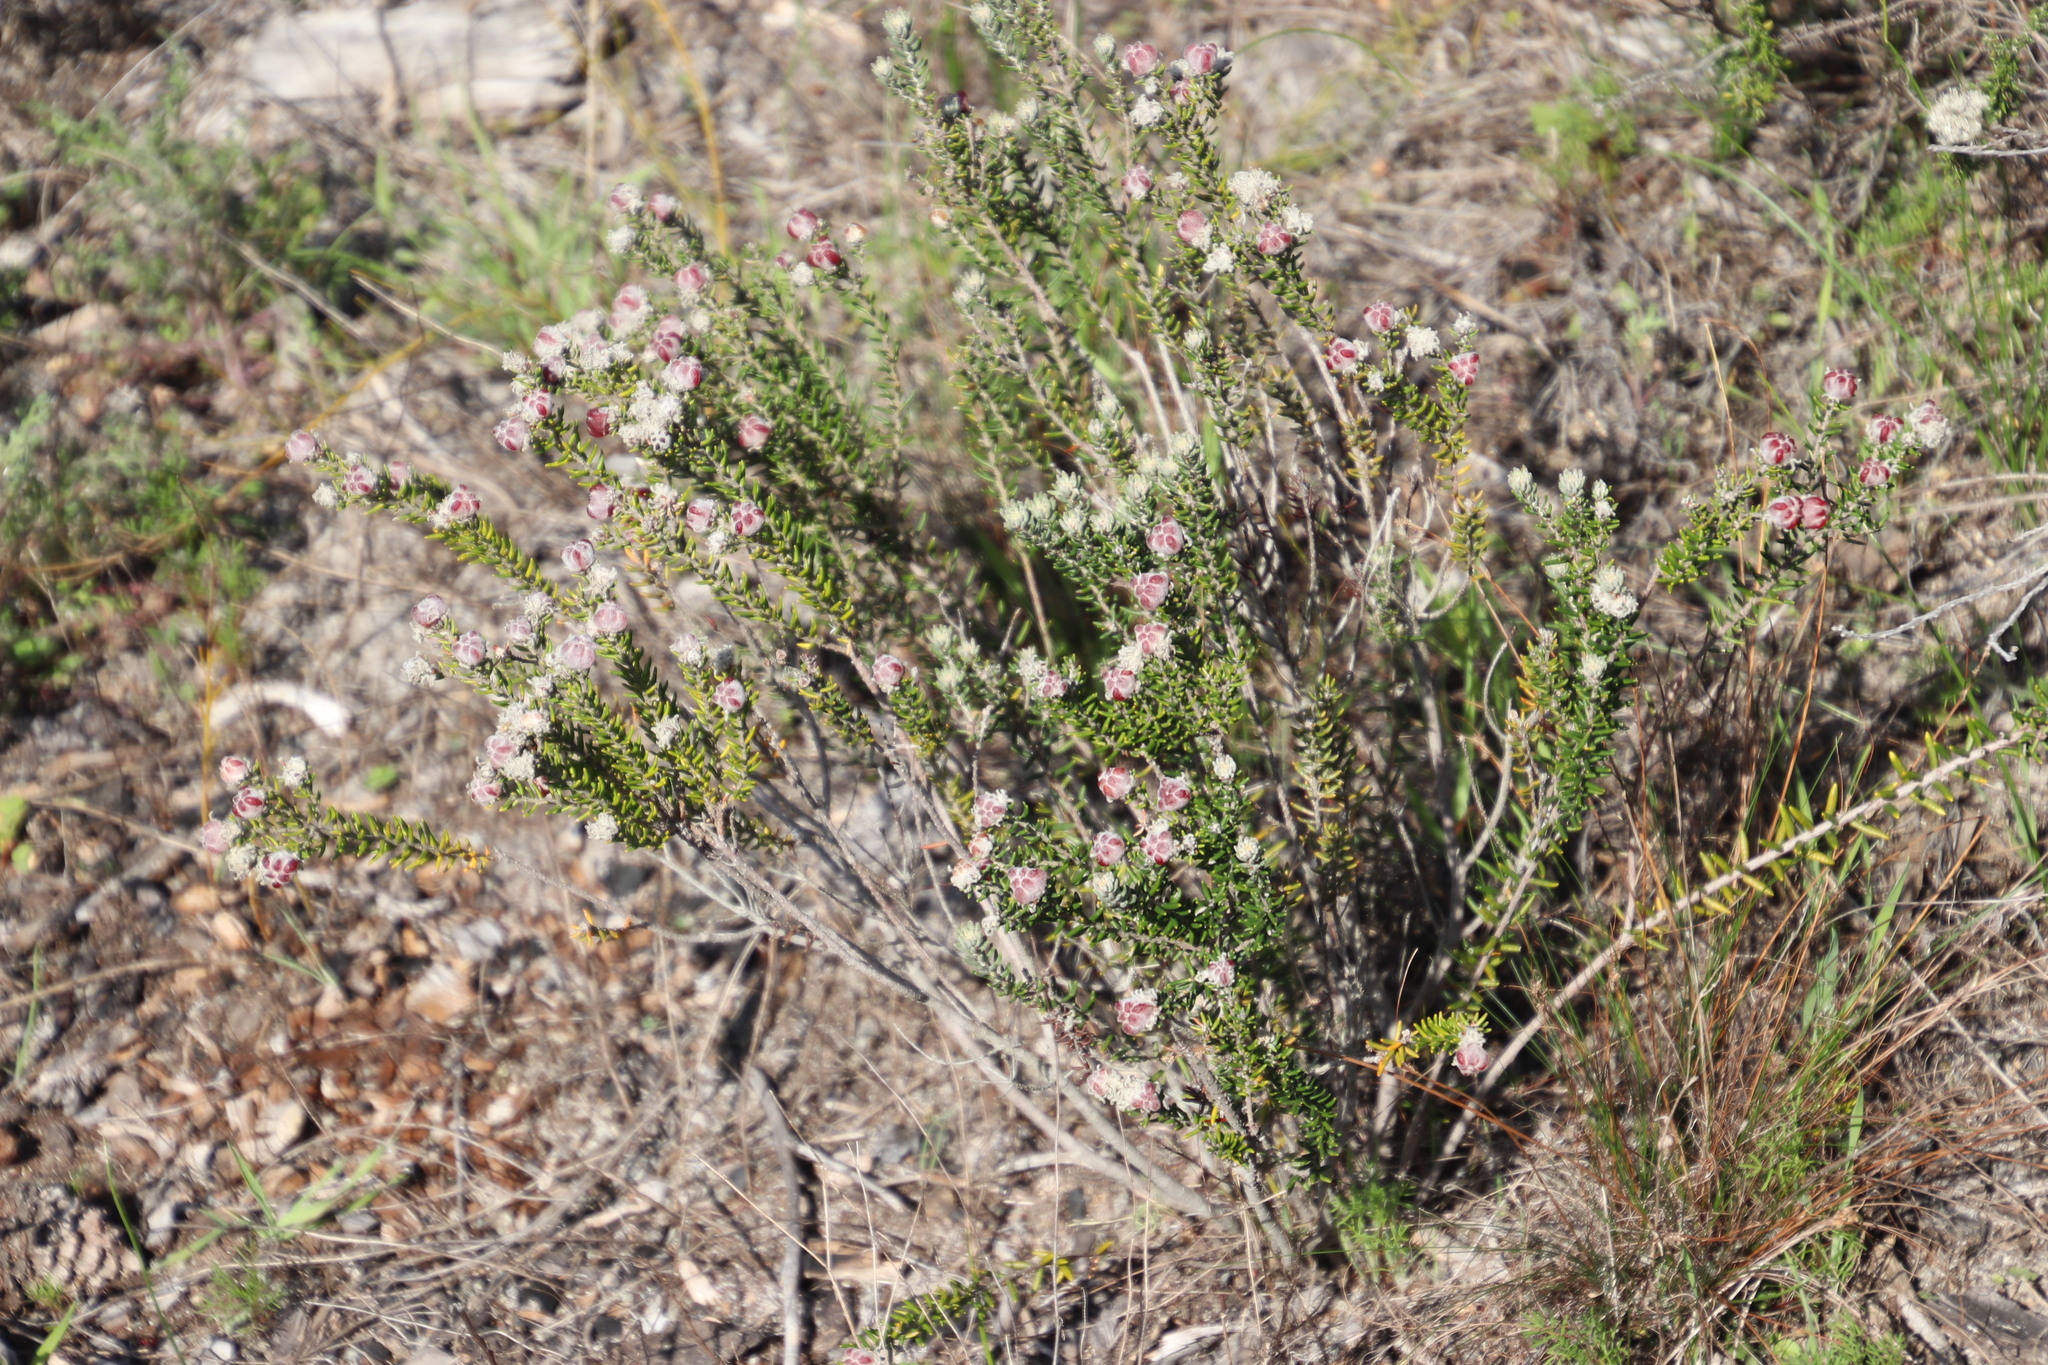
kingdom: Plantae
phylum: Tracheophyta
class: Magnoliopsida
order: Rosales
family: Rhamnaceae
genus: Trichocephalus
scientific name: Trichocephalus stipularis
